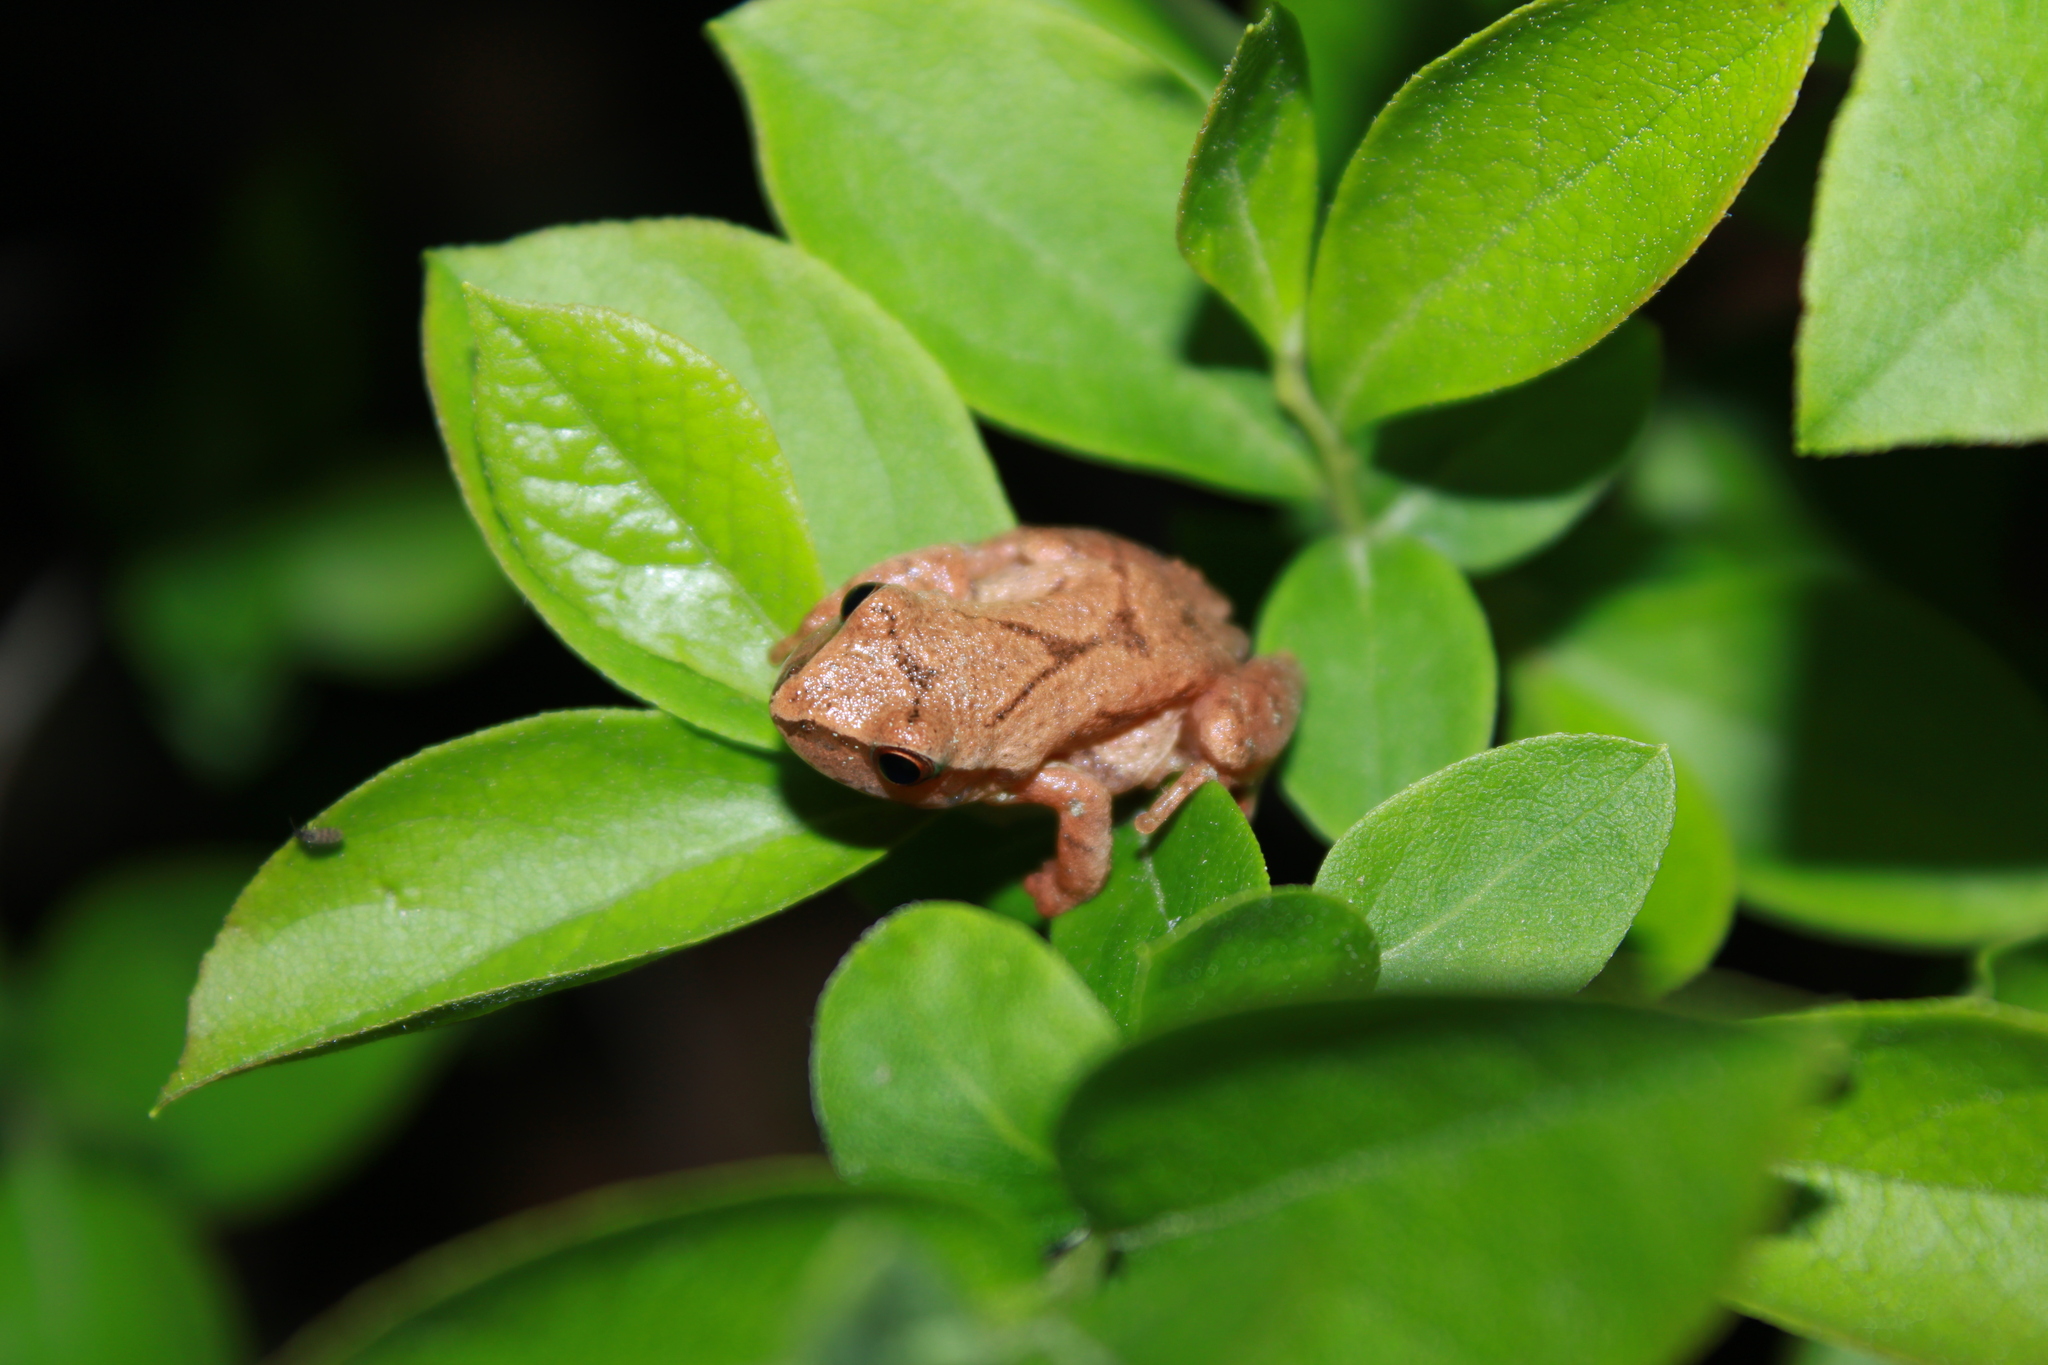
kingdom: Animalia
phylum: Chordata
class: Amphibia
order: Anura
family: Hylidae
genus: Pseudacris
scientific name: Pseudacris crucifer
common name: Spring peeper
